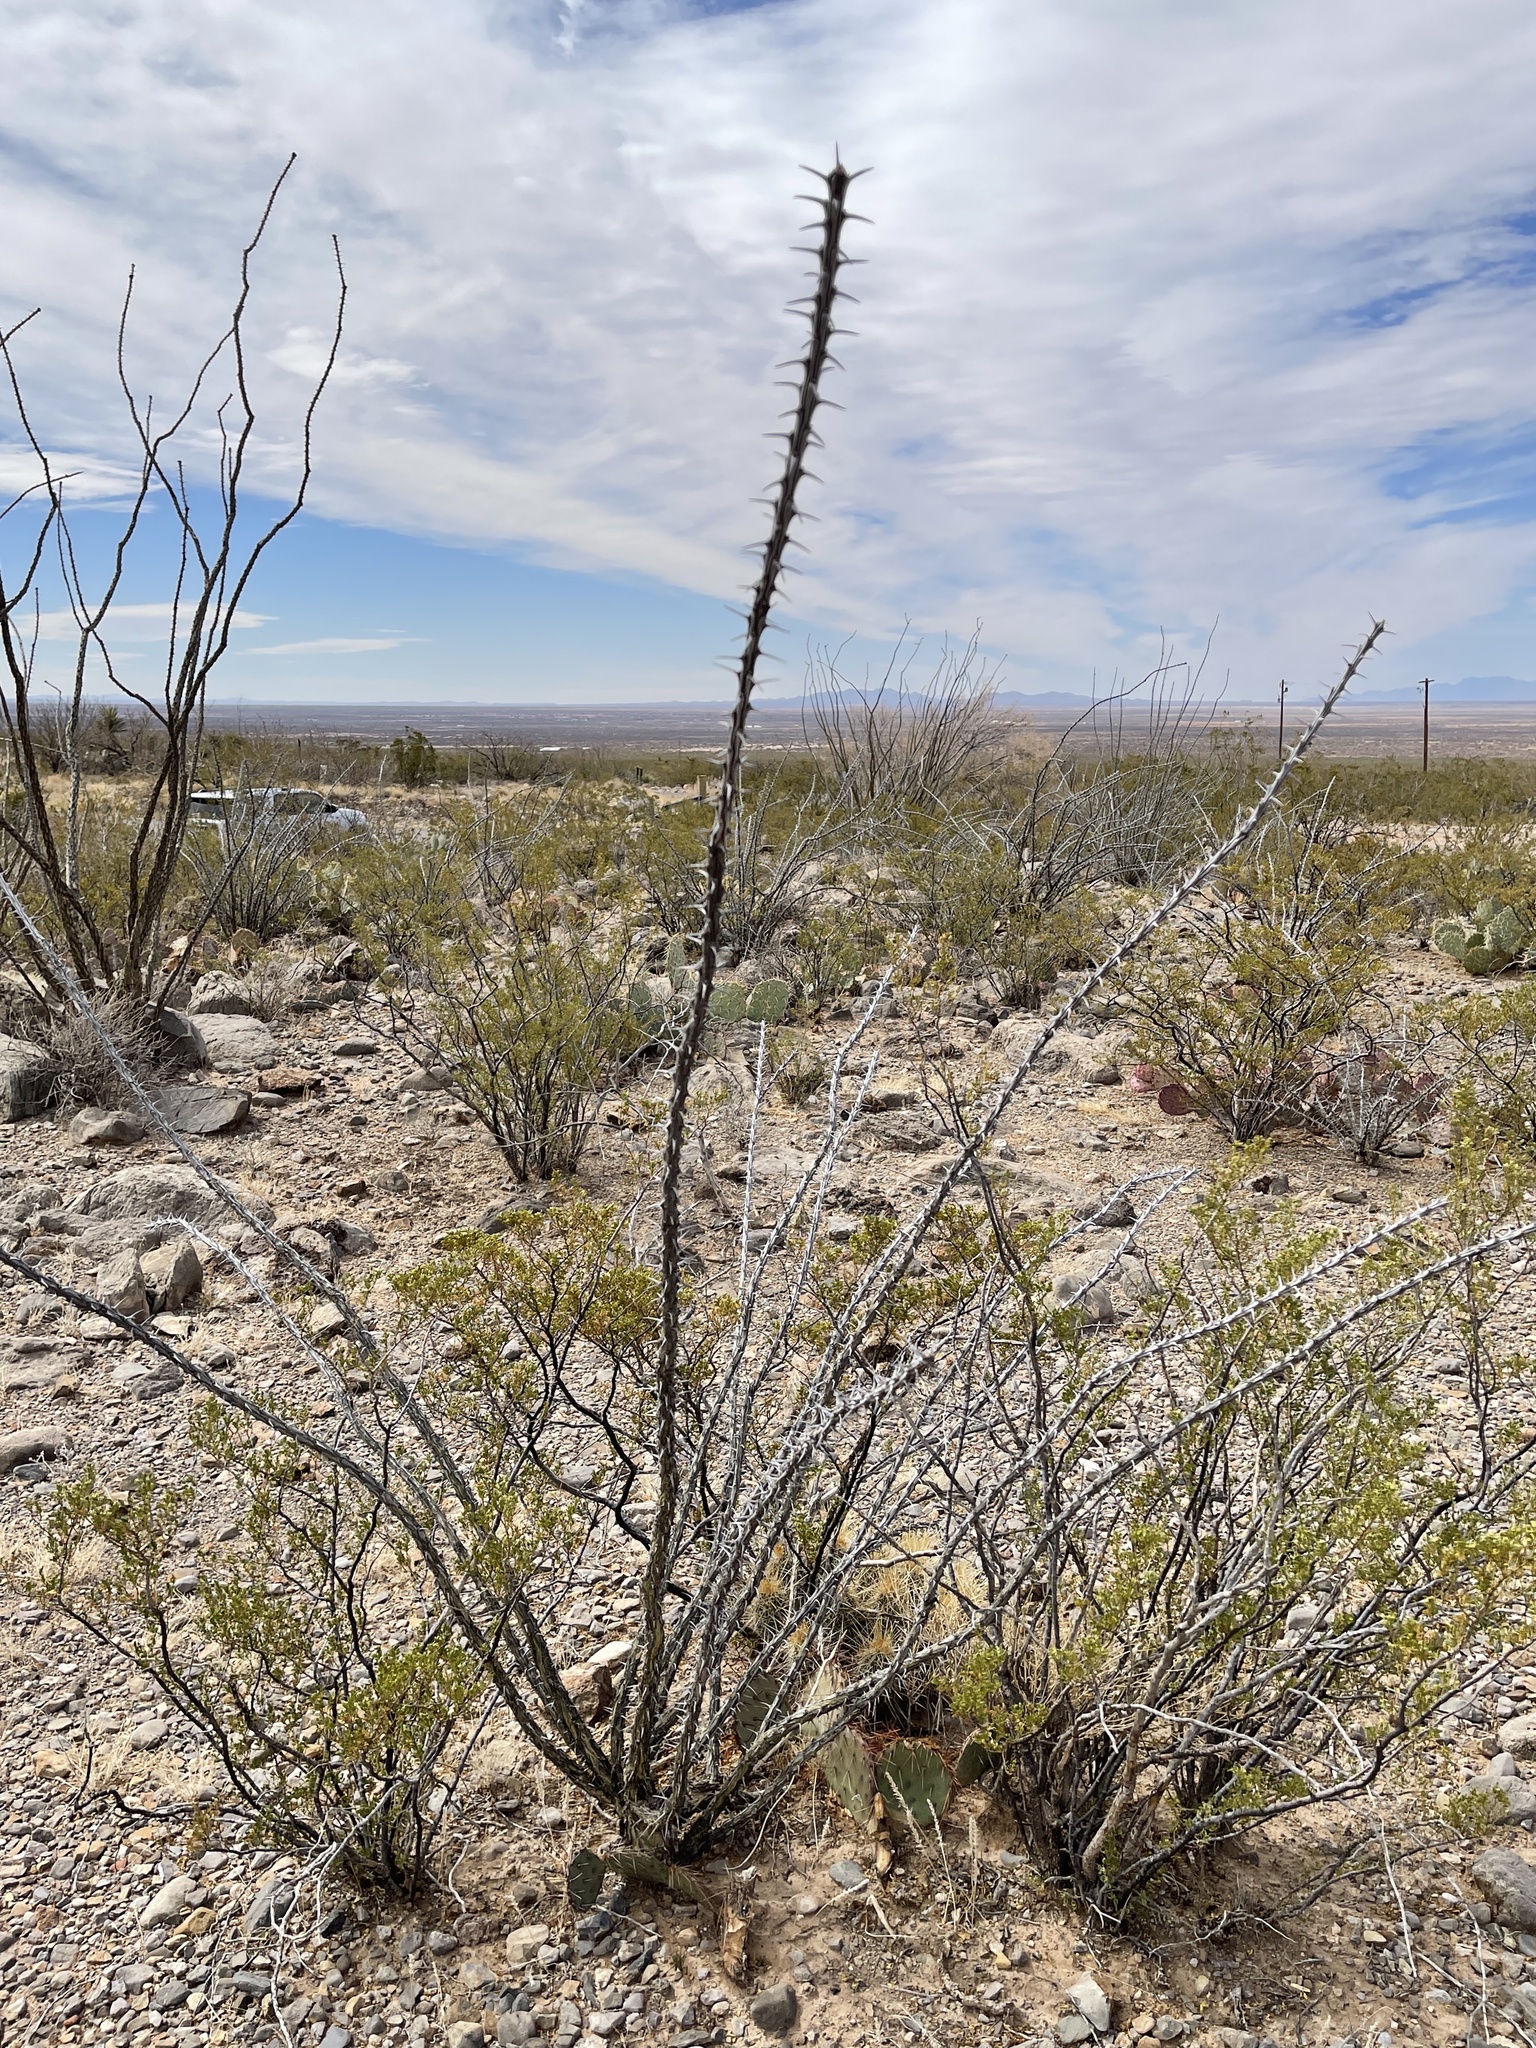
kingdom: Plantae
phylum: Tracheophyta
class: Magnoliopsida
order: Ericales
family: Fouquieriaceae
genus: Fouquieria
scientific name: Fouquieria splendens
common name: Vine-cactus
